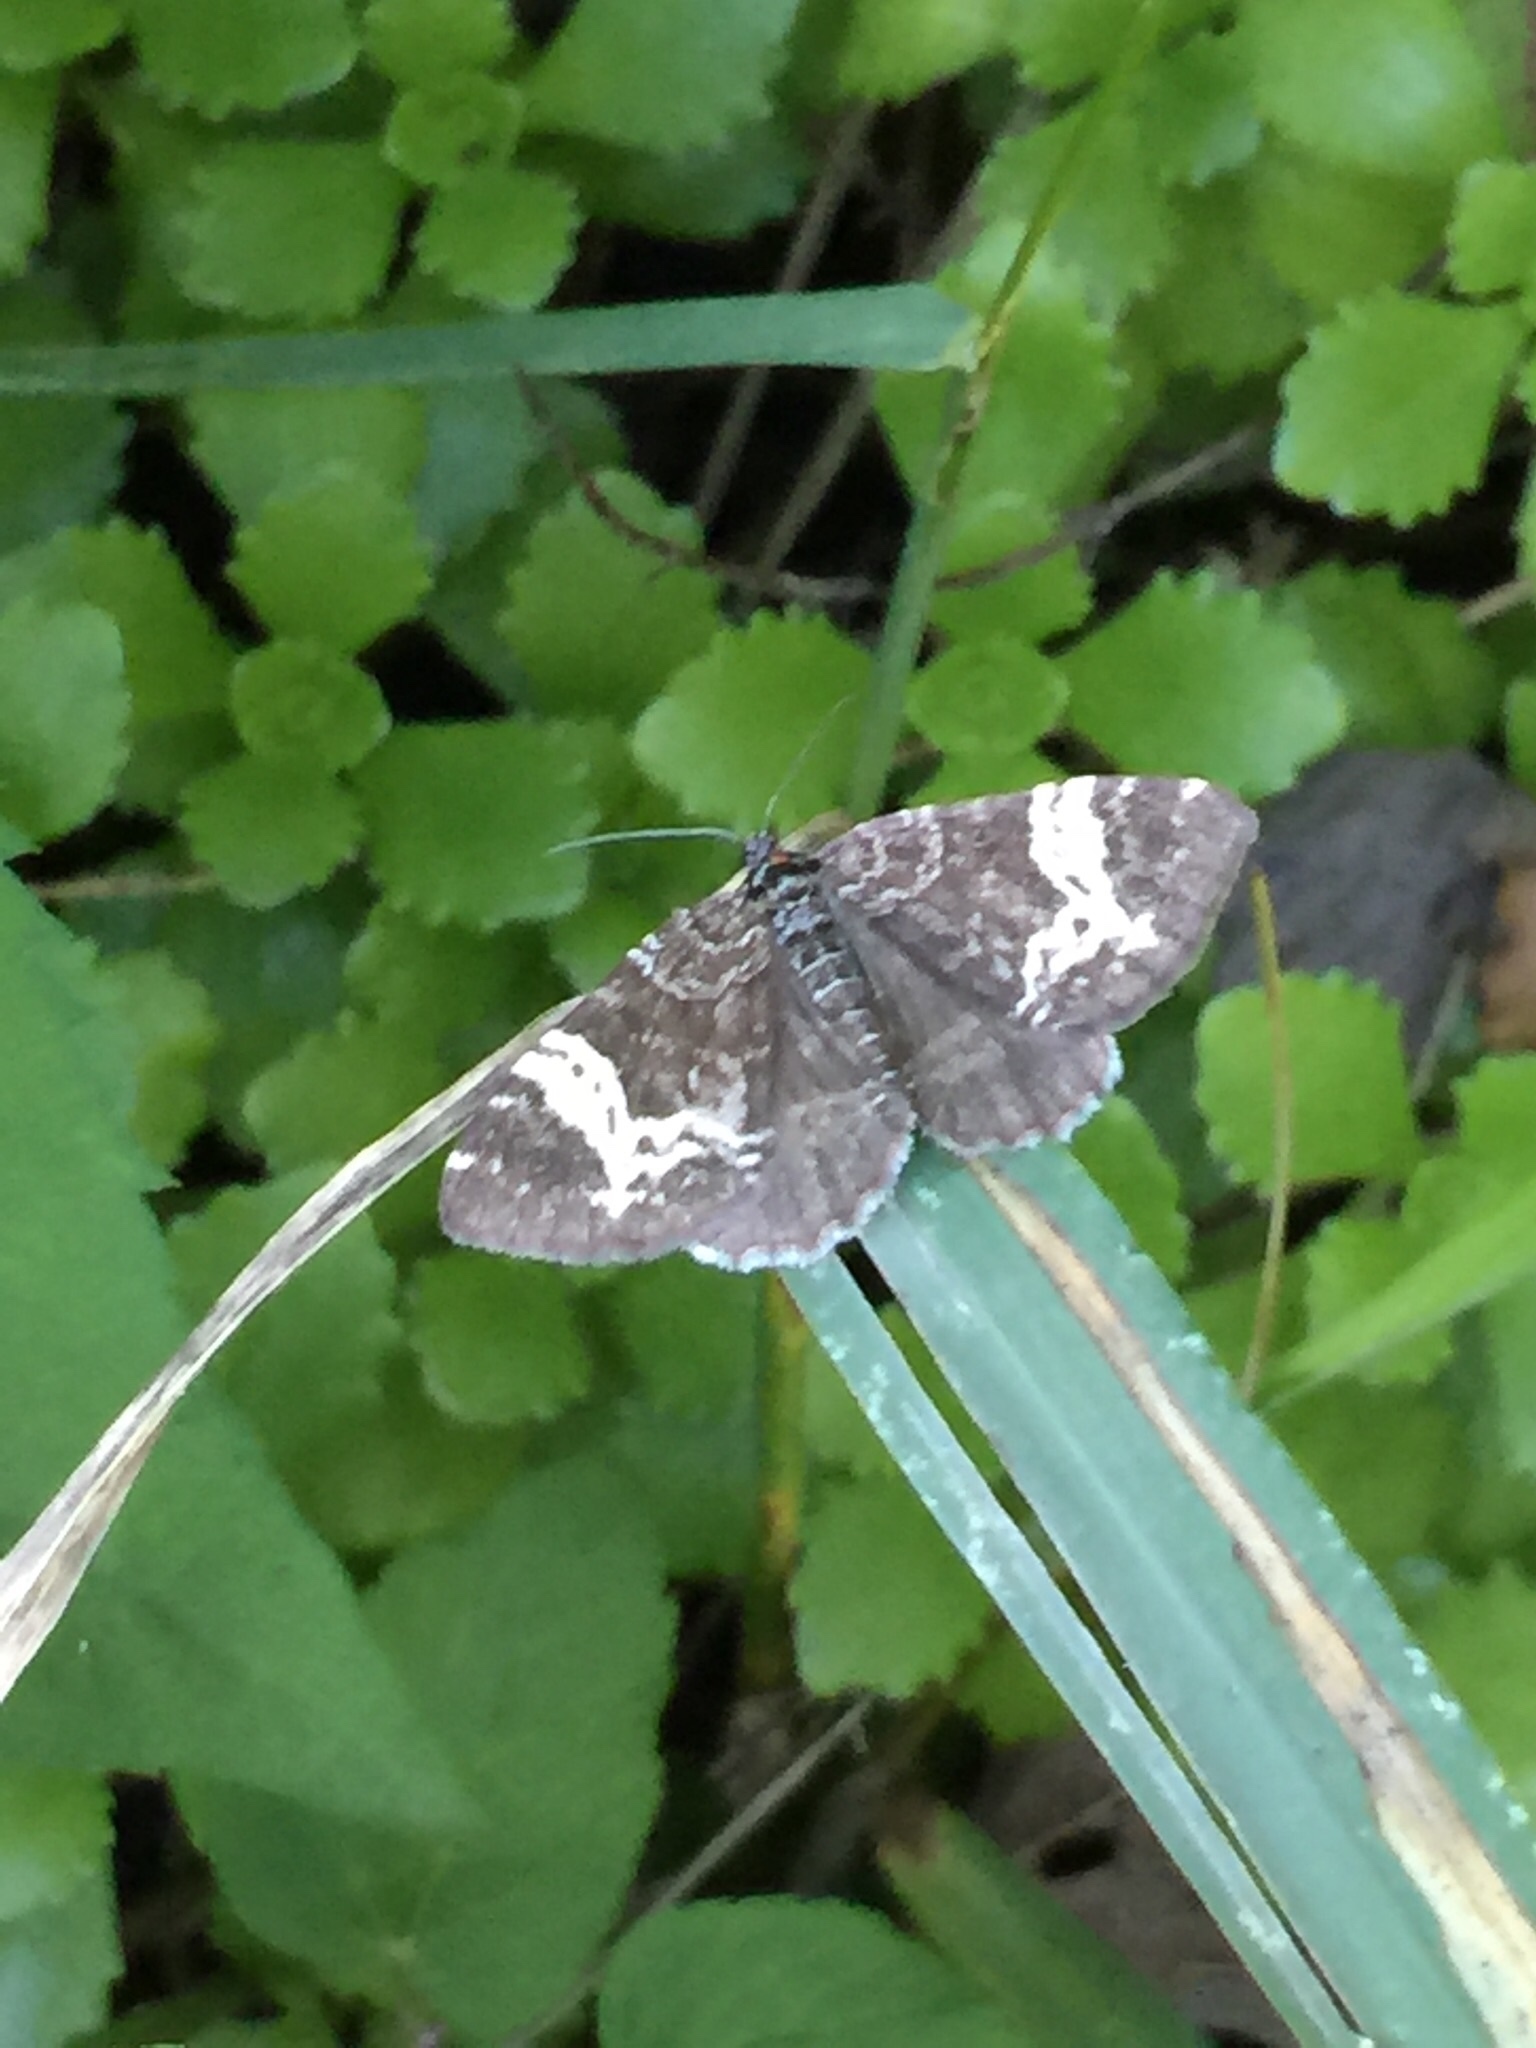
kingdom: Animalia
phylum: Arthropoda
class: Insecta
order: Lepidoptera
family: Geometridae
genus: Rheumaptera
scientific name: Rheumaptera
